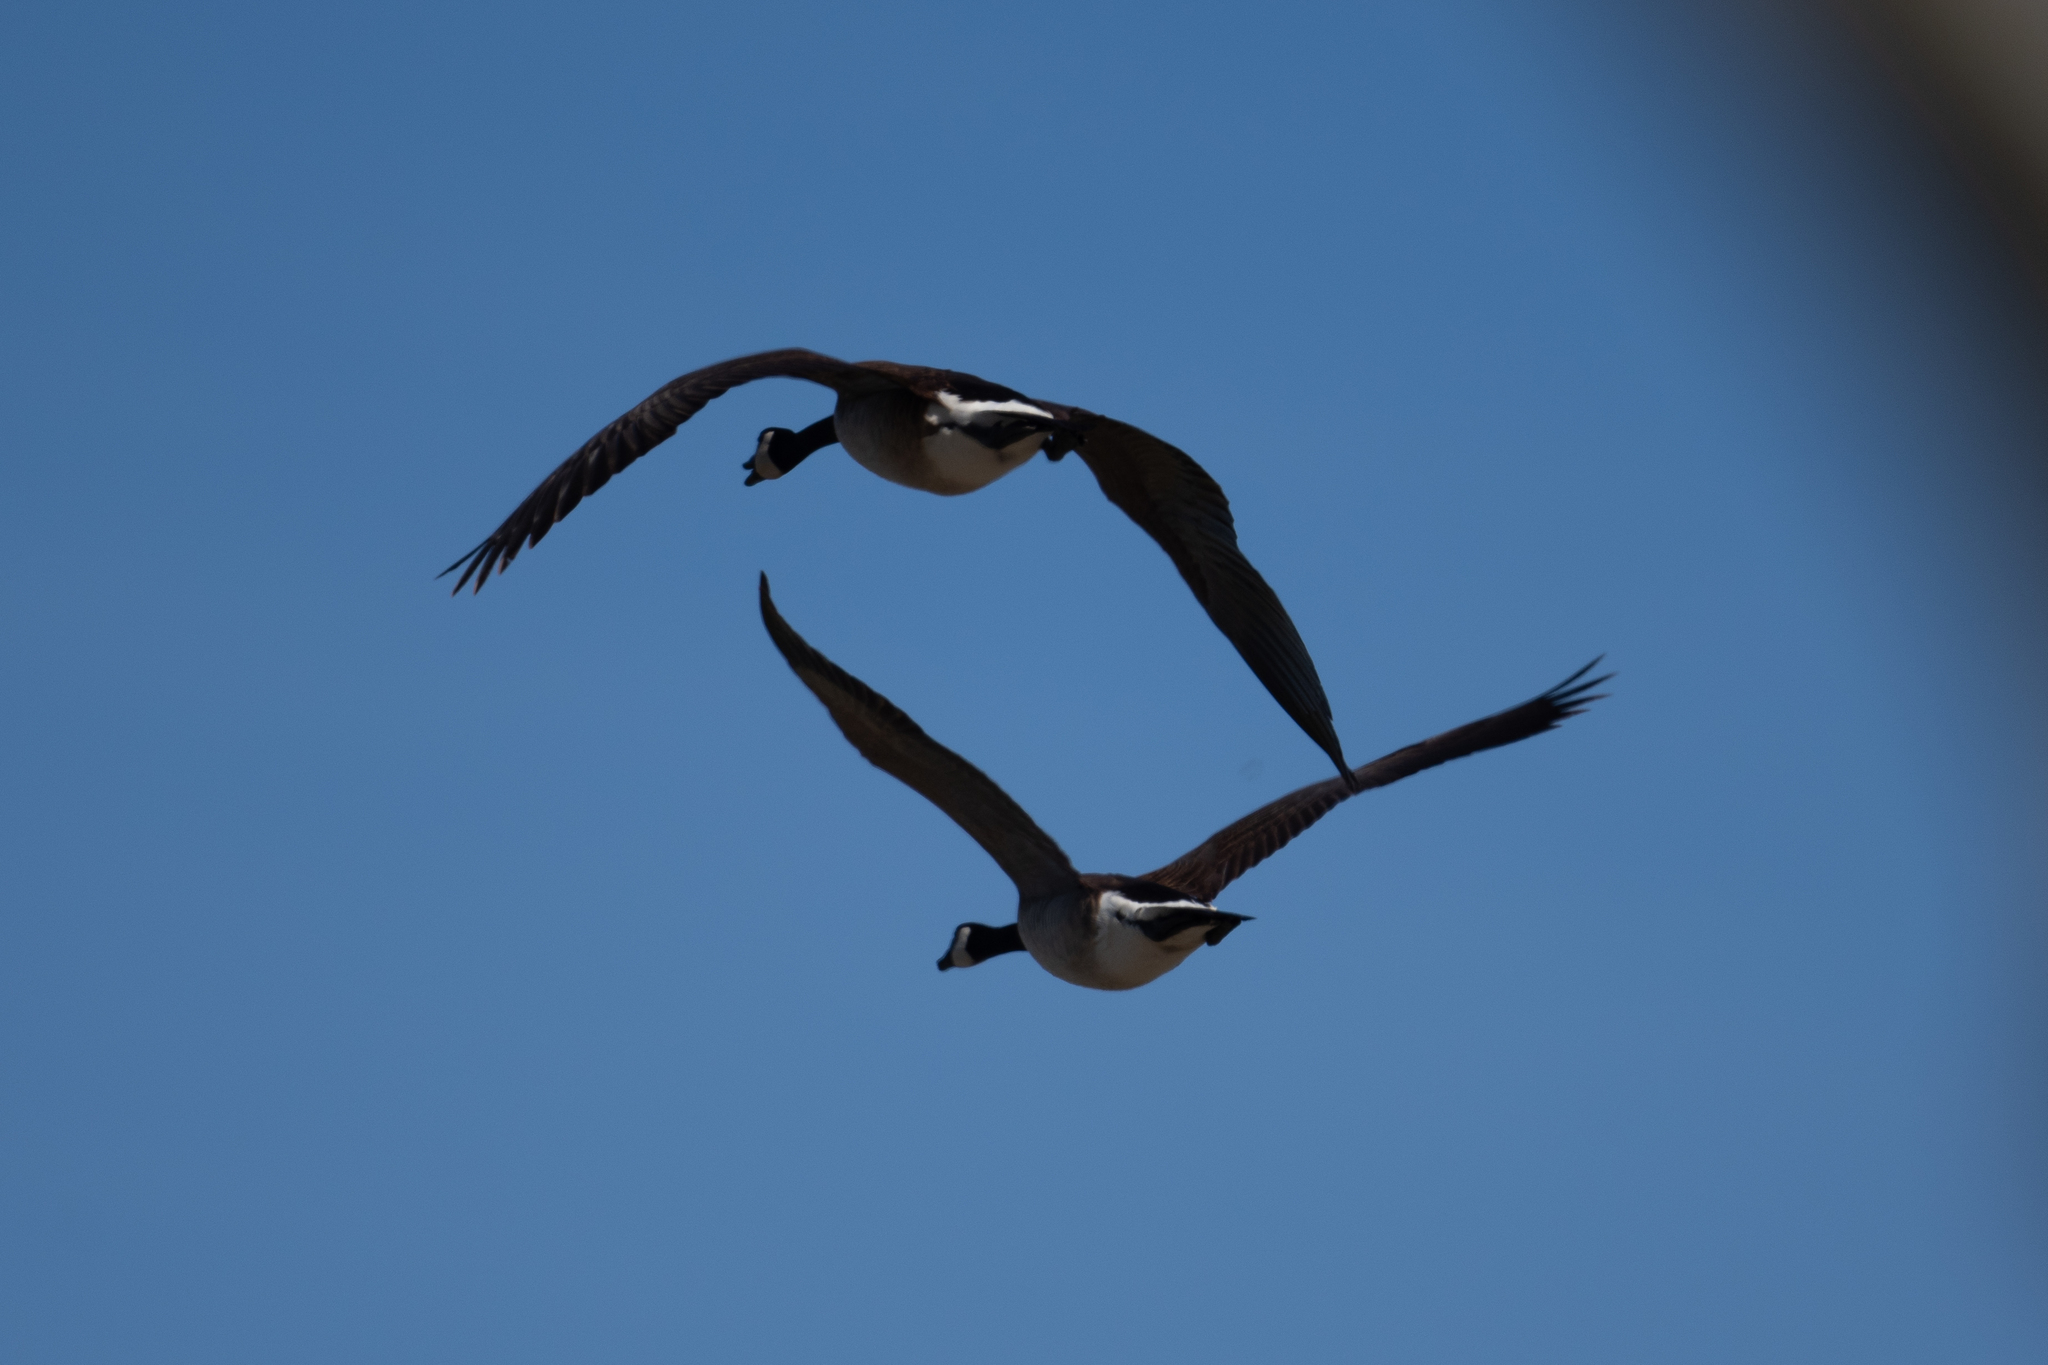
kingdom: Animalia
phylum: Chordata
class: Aves
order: Anseriformes
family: Anatidae
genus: Branta
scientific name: Branta canadensis
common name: Canada goose
